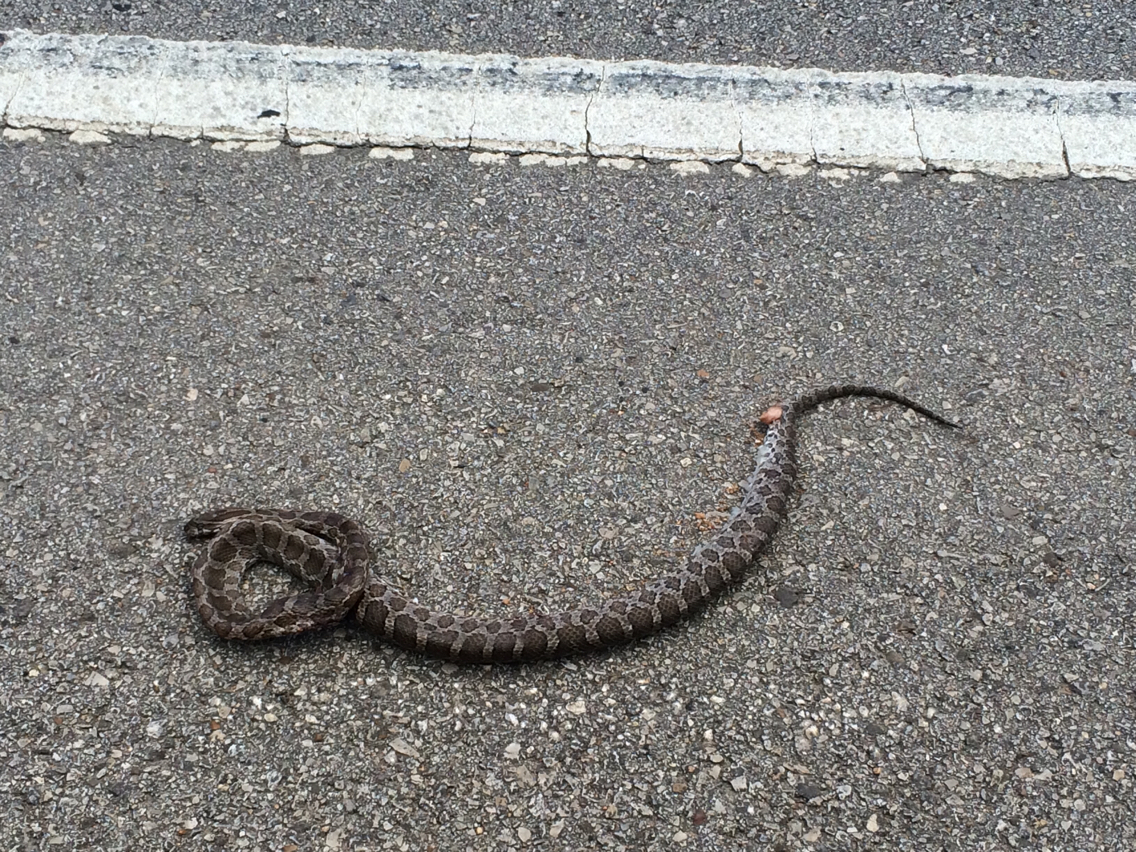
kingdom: Animalia
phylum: Chordata
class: Squamata
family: Colubridae
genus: Pantherophis
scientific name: Pantherophis emoryi
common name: Great plains rat snake
